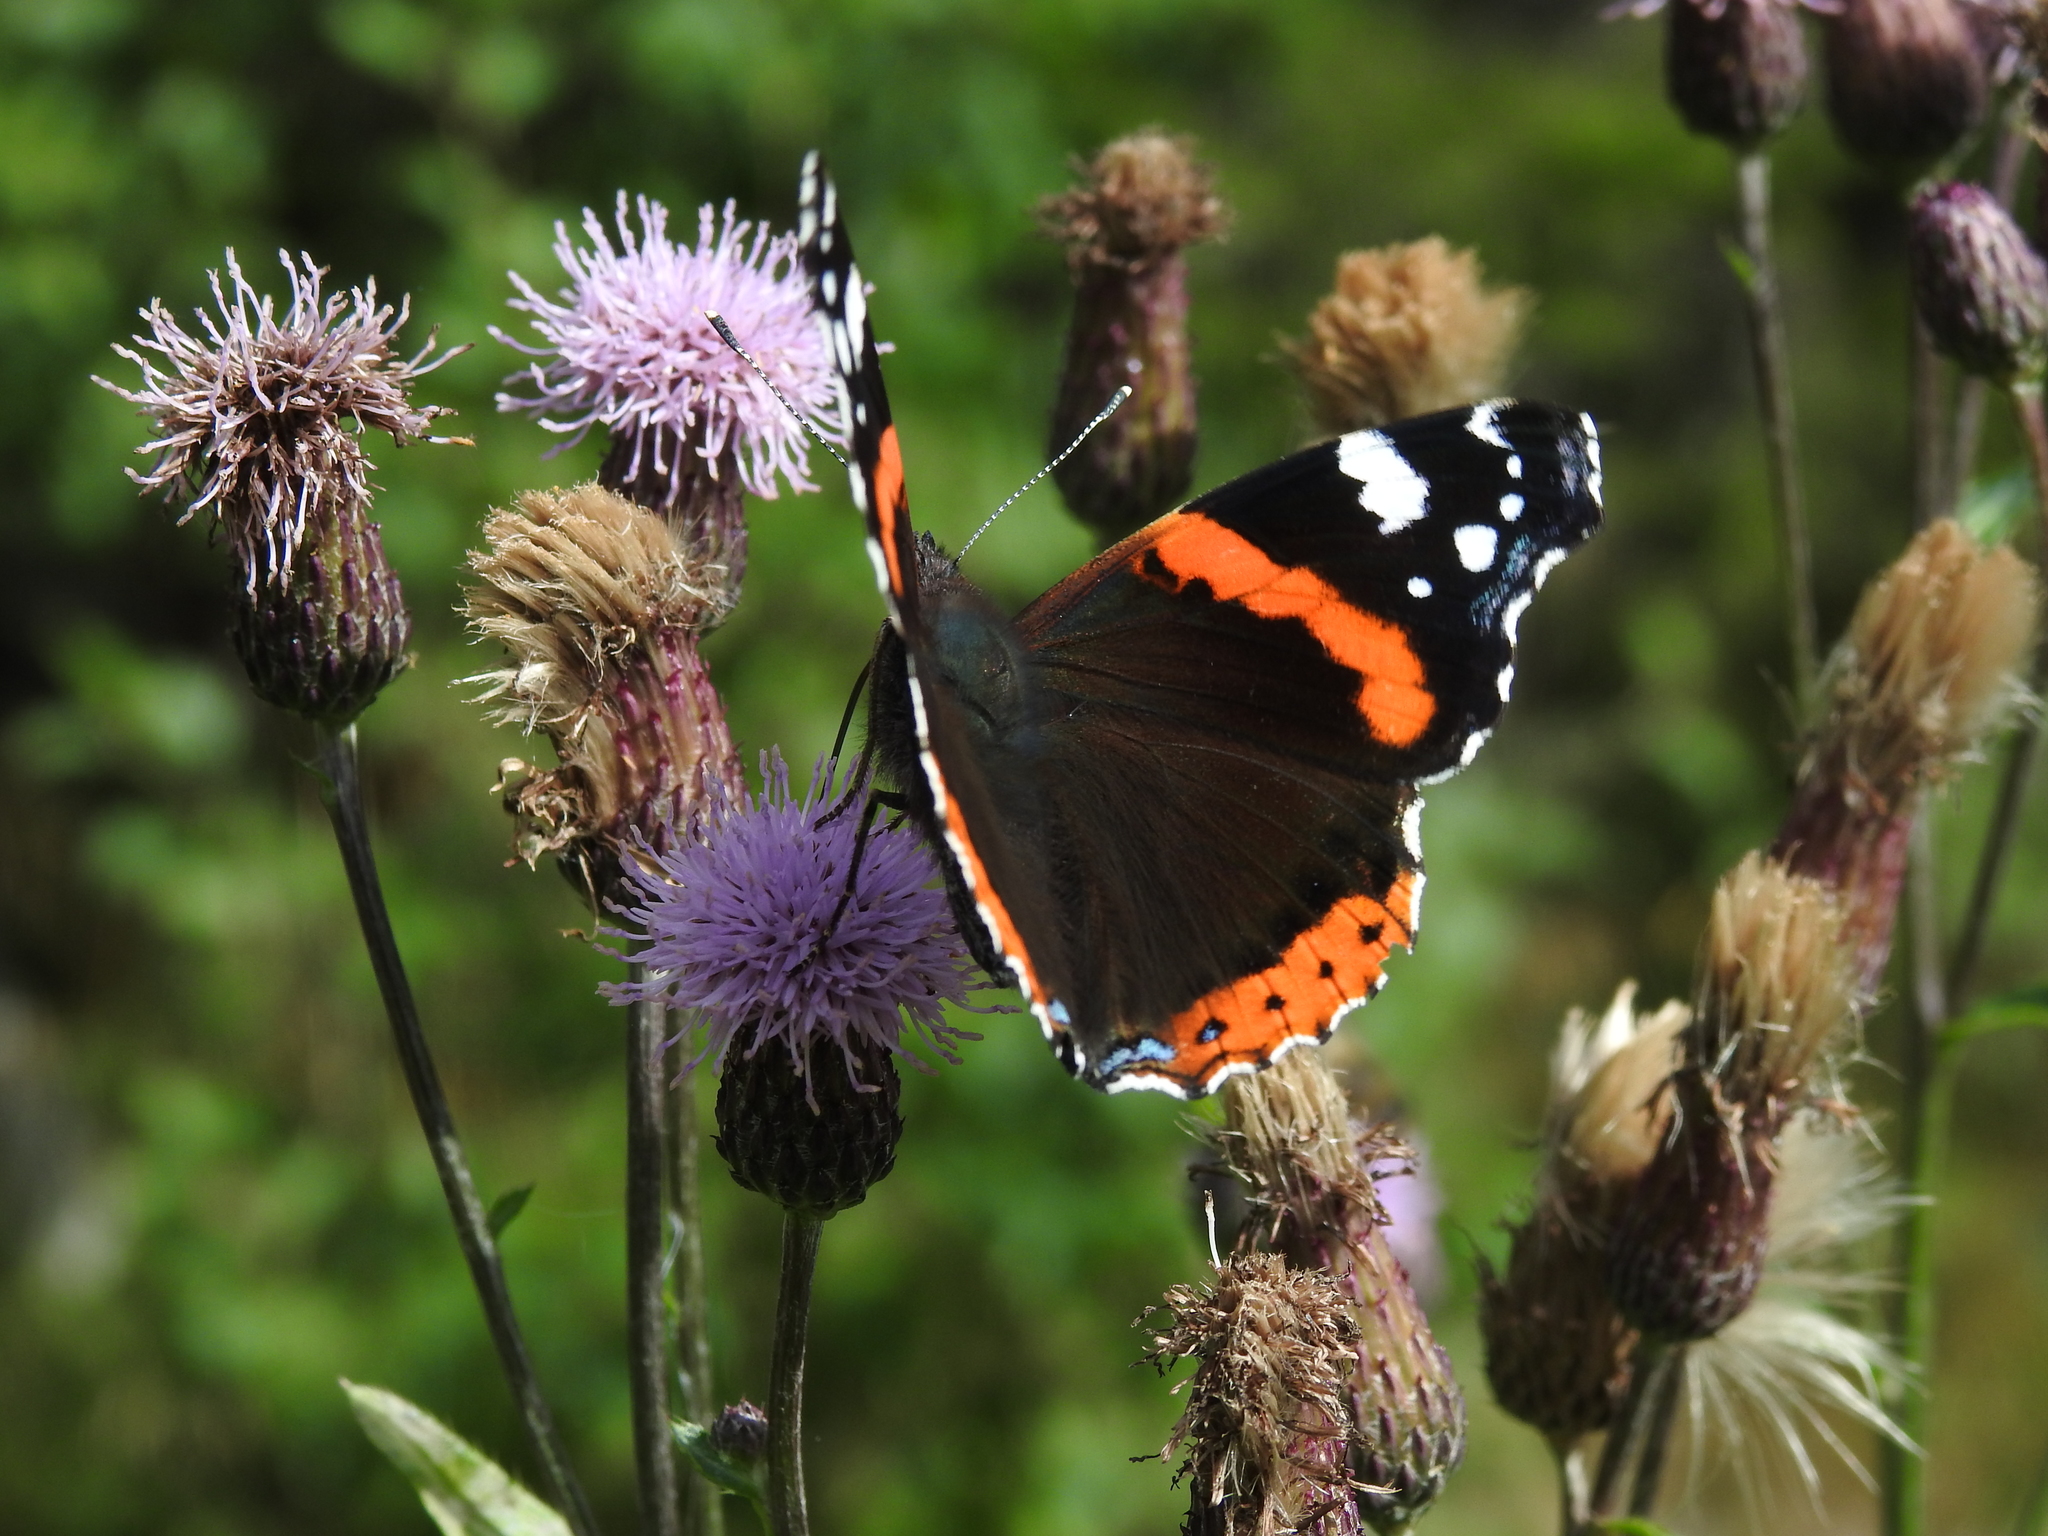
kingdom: Animalia
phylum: Arthropoda
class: Insecta
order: Lepidoptera
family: Nymphalidae
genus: Vanessa
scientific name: Vanessa atalanta
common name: Red admiral
